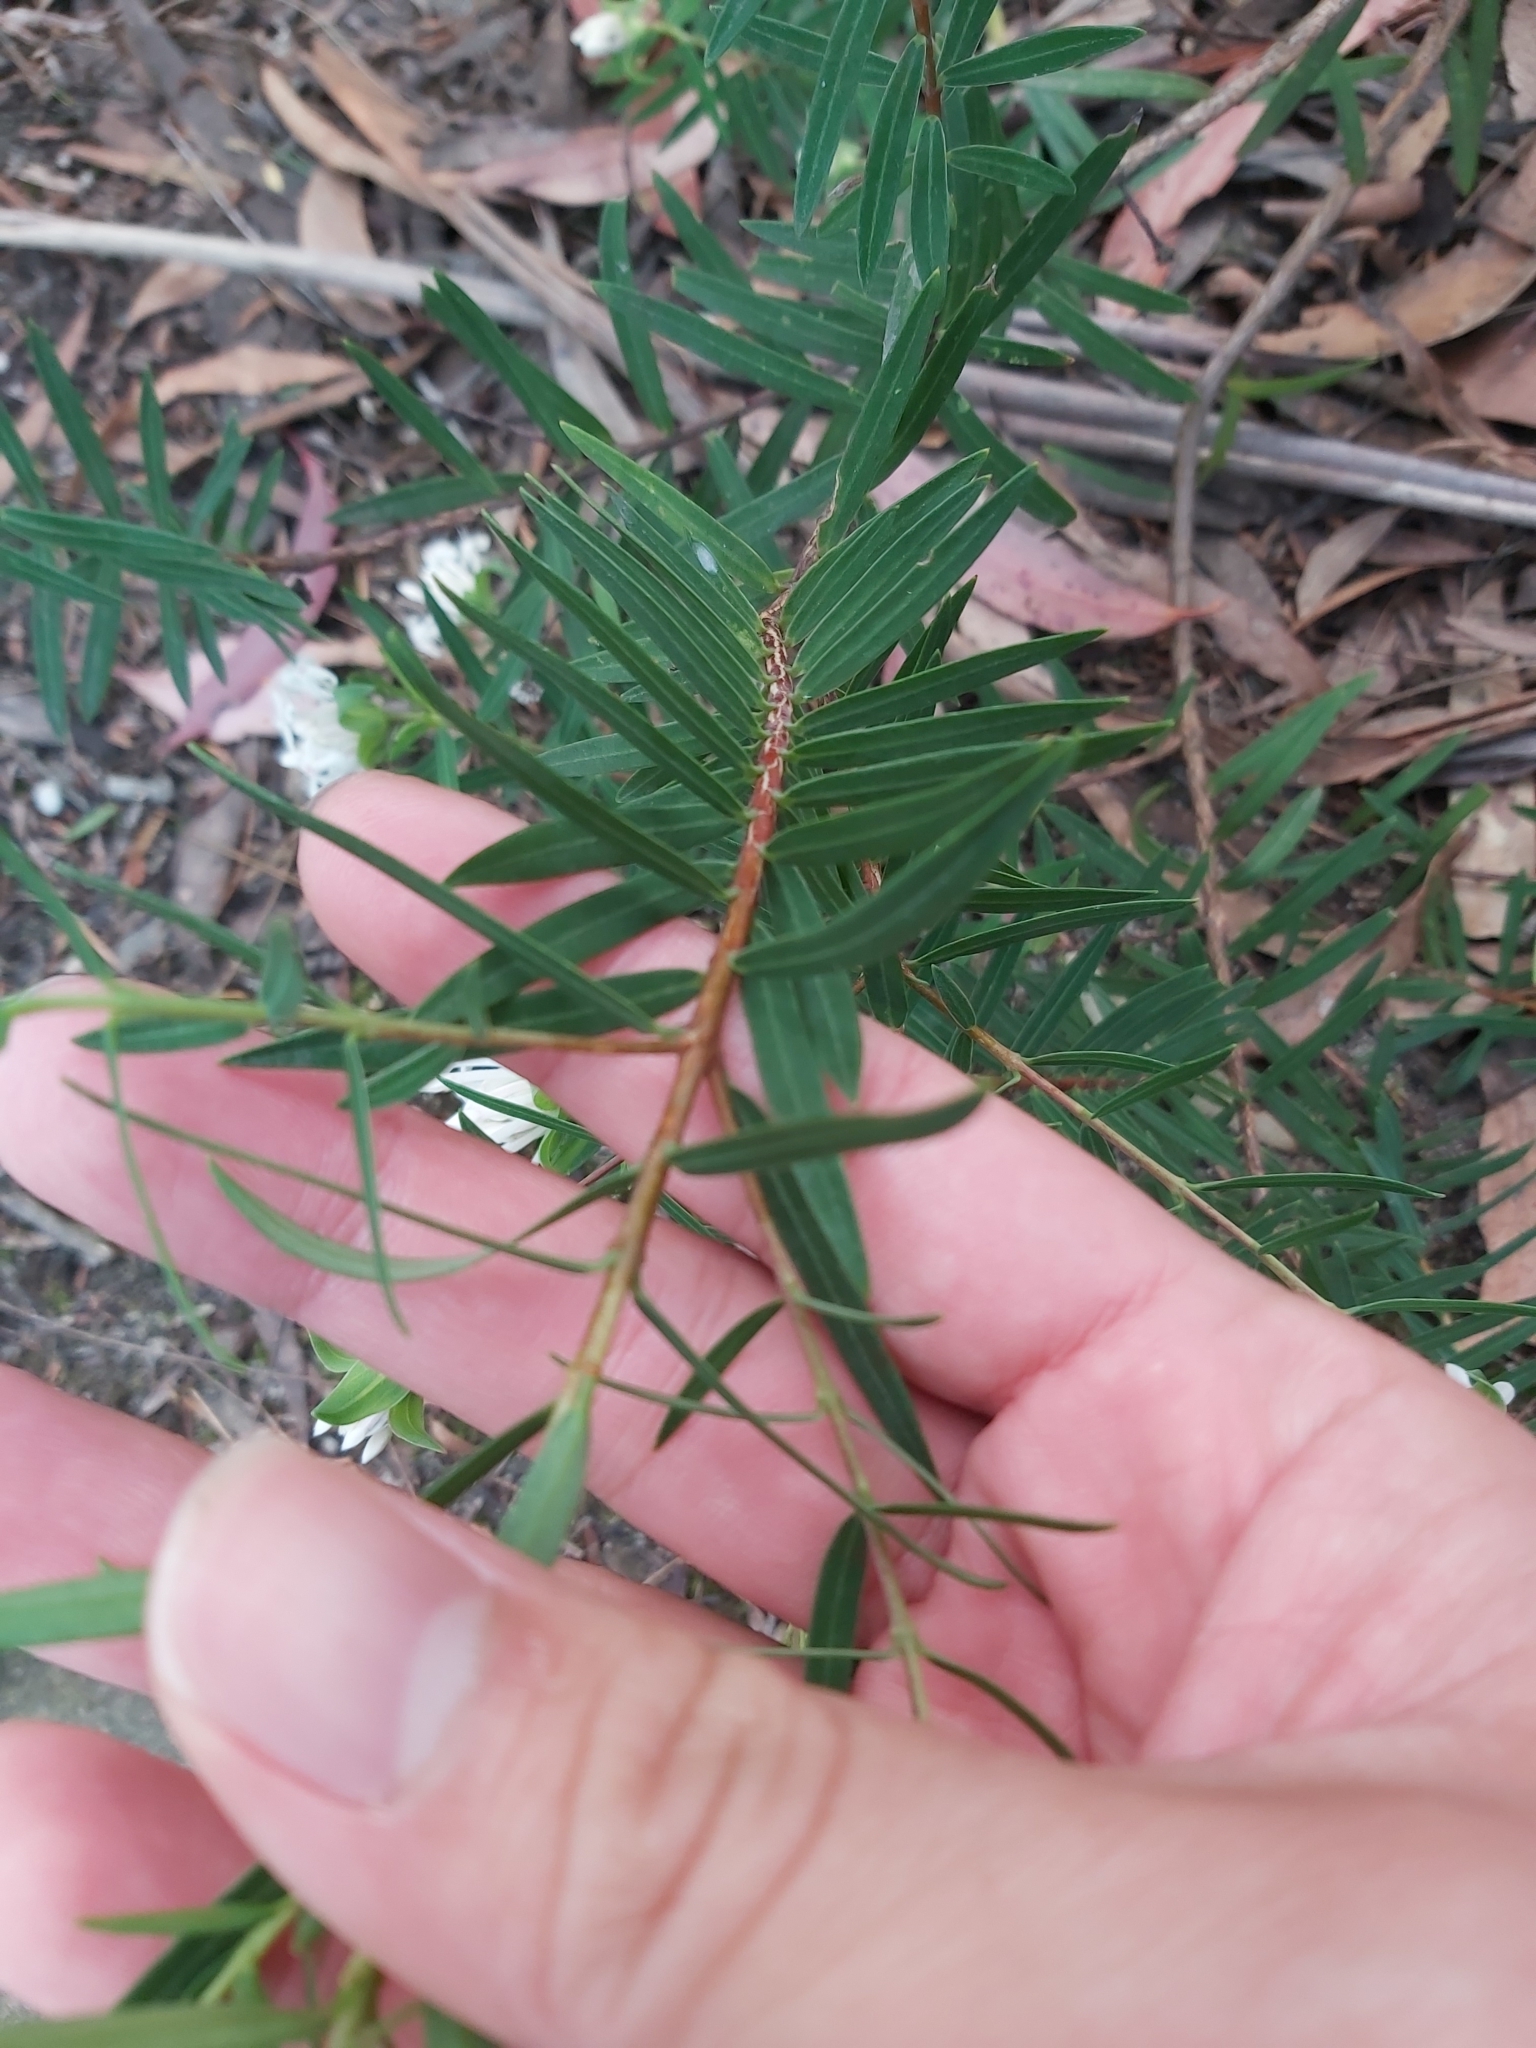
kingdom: Plantae
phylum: Tracheophyta
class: Magnoliopsida
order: Malvales
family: Thymelaeaceae
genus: Pimelea
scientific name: Pimelea linifolia
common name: Queen-of-the-bush
